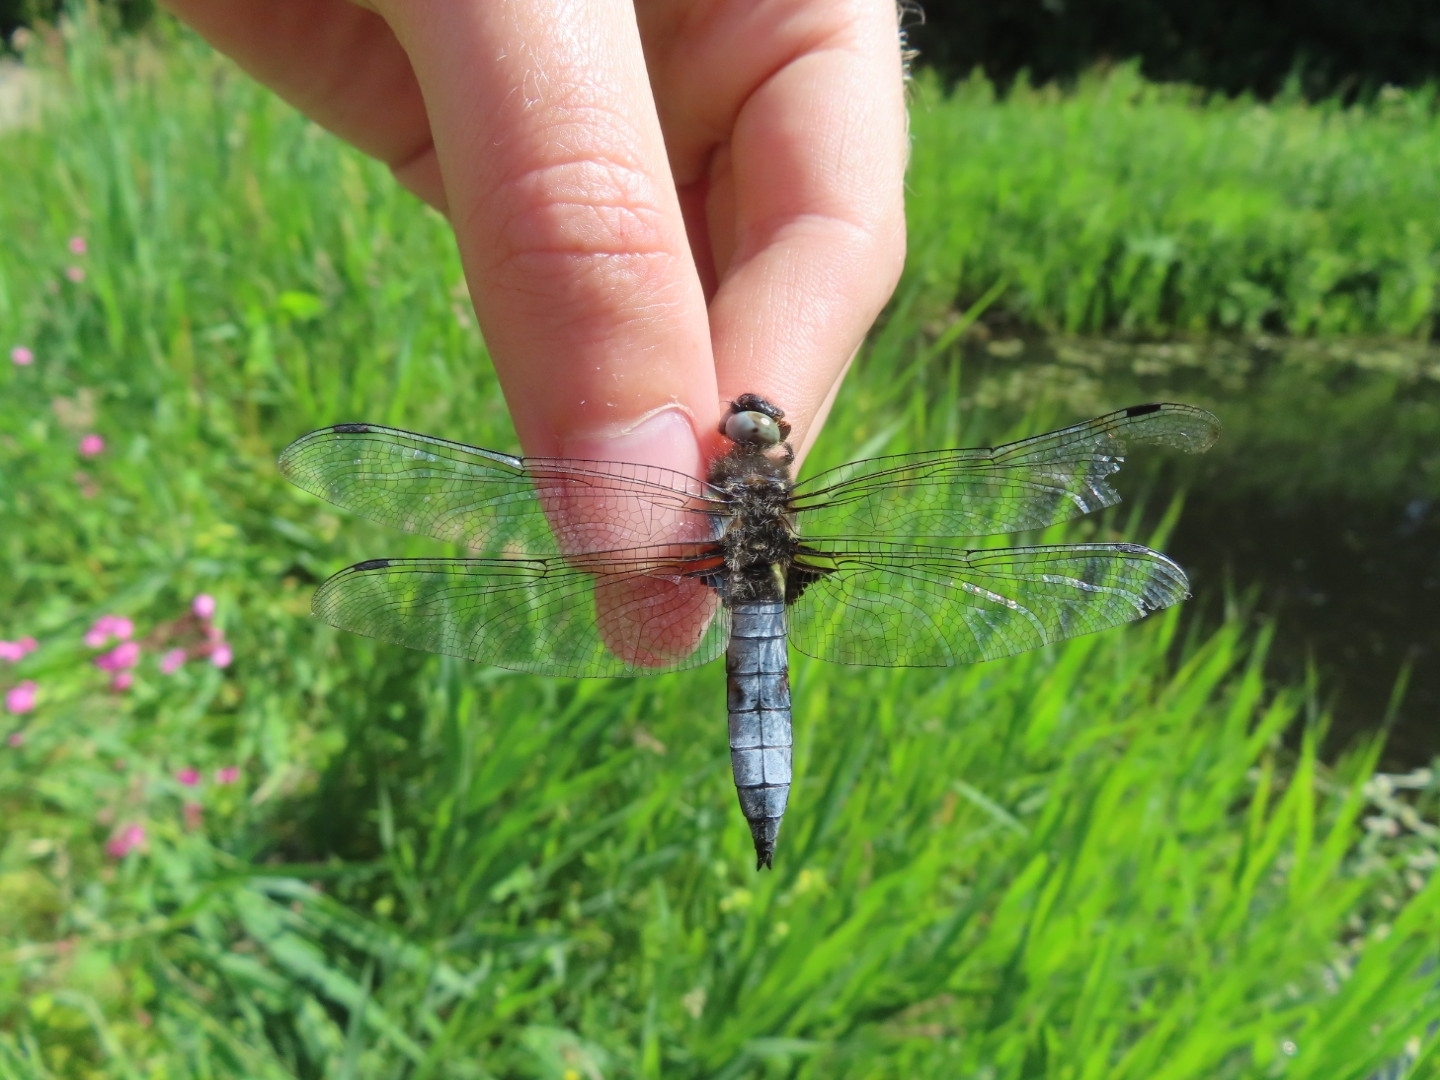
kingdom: Animalia
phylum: Arthropoda
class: Insecta
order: Odonata
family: Libellulidae
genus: Libellula
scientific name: Libellula fulva
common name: Blue chaser
